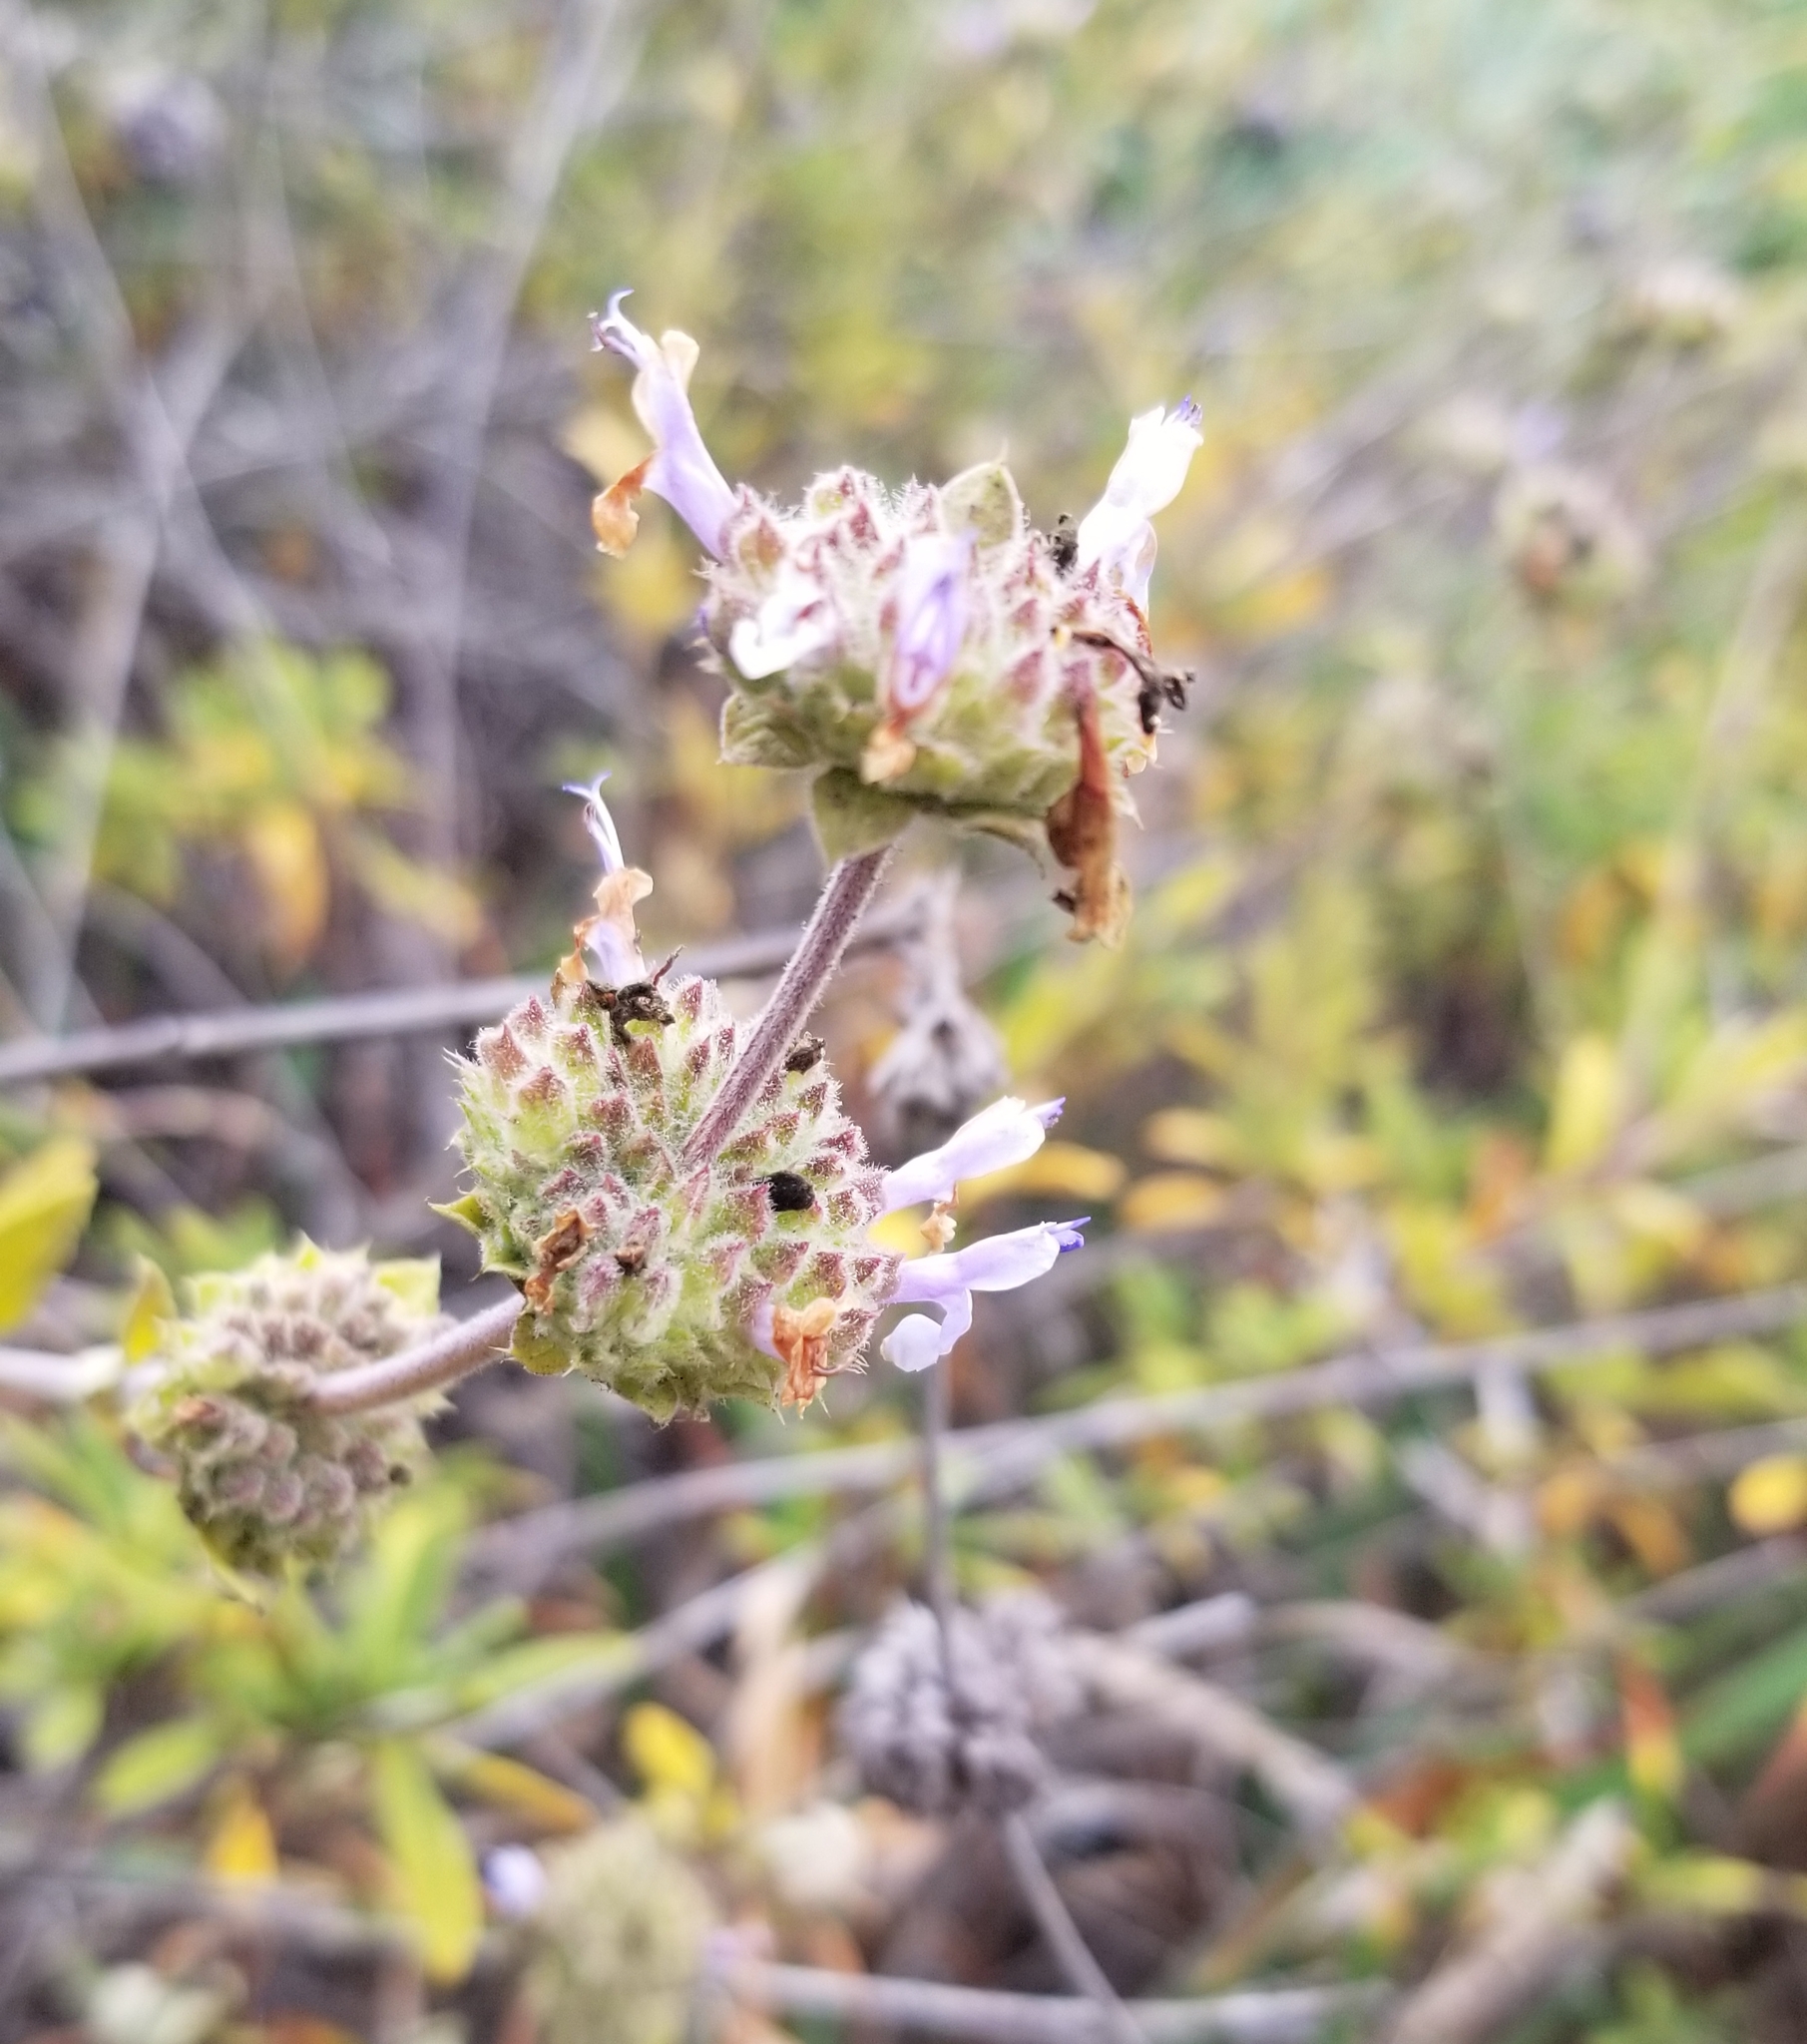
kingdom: Plantae
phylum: Tracheophyta
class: Magnoliopsida
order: Lamiales
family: Lamiaceae
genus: Salvia
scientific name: Salvia mellifera
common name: Black sage
